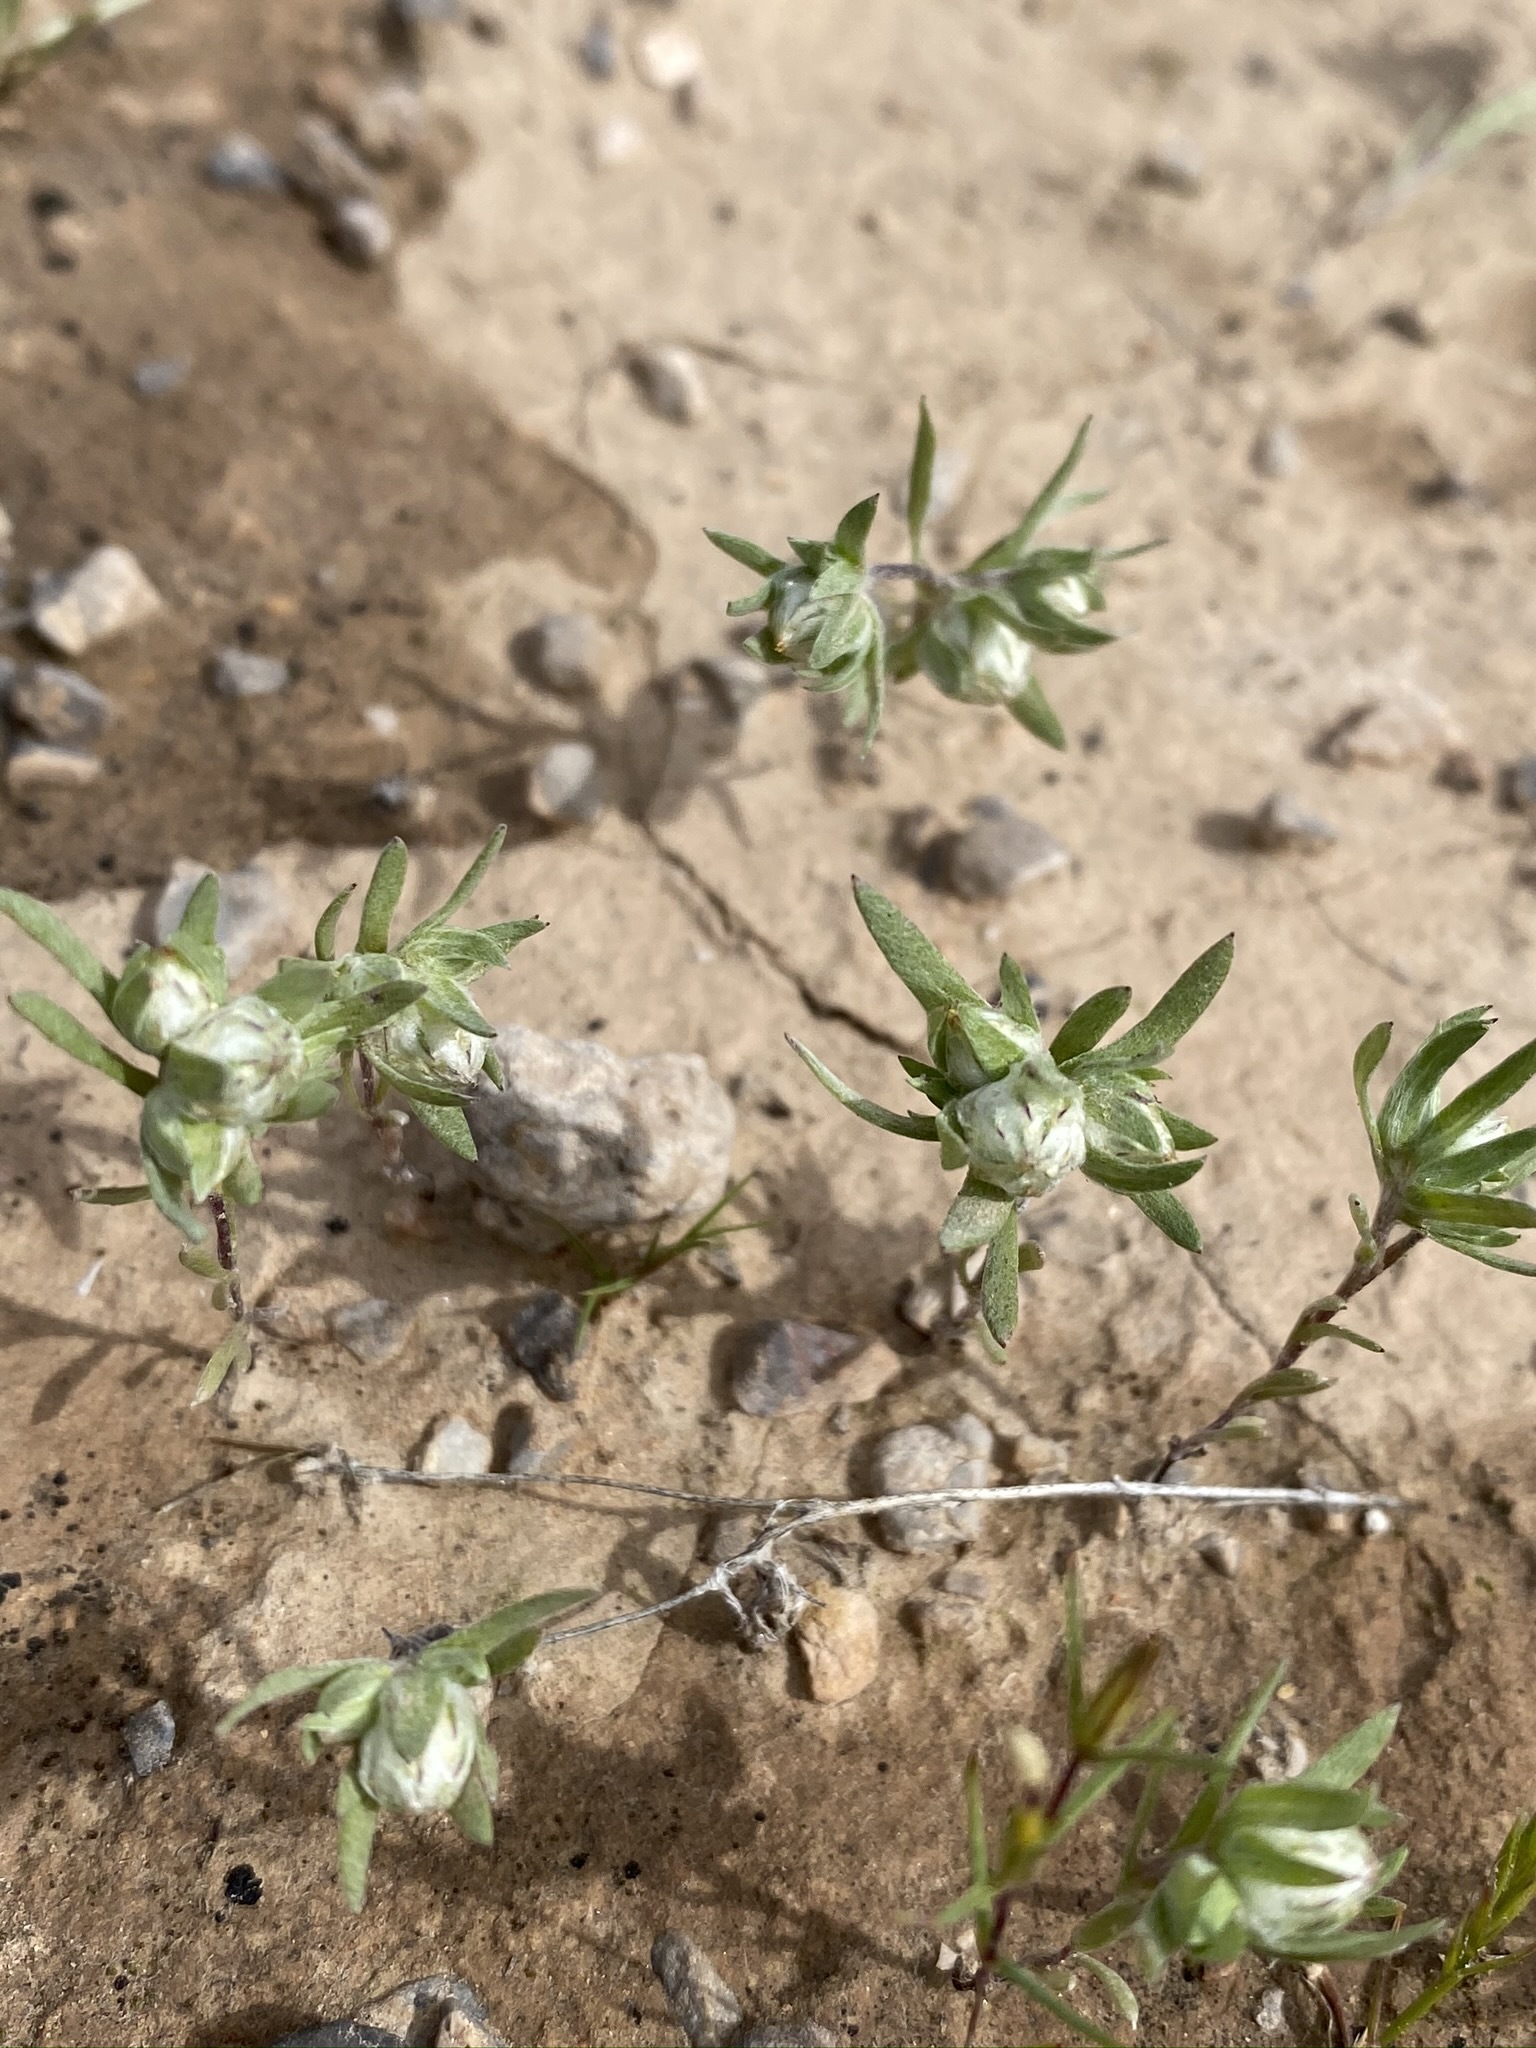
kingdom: Plantae
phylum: Tracheophyta
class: Magnoliopsida
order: Asterales
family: Asteraceae
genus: Stylocline
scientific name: Stylocline micropoides
